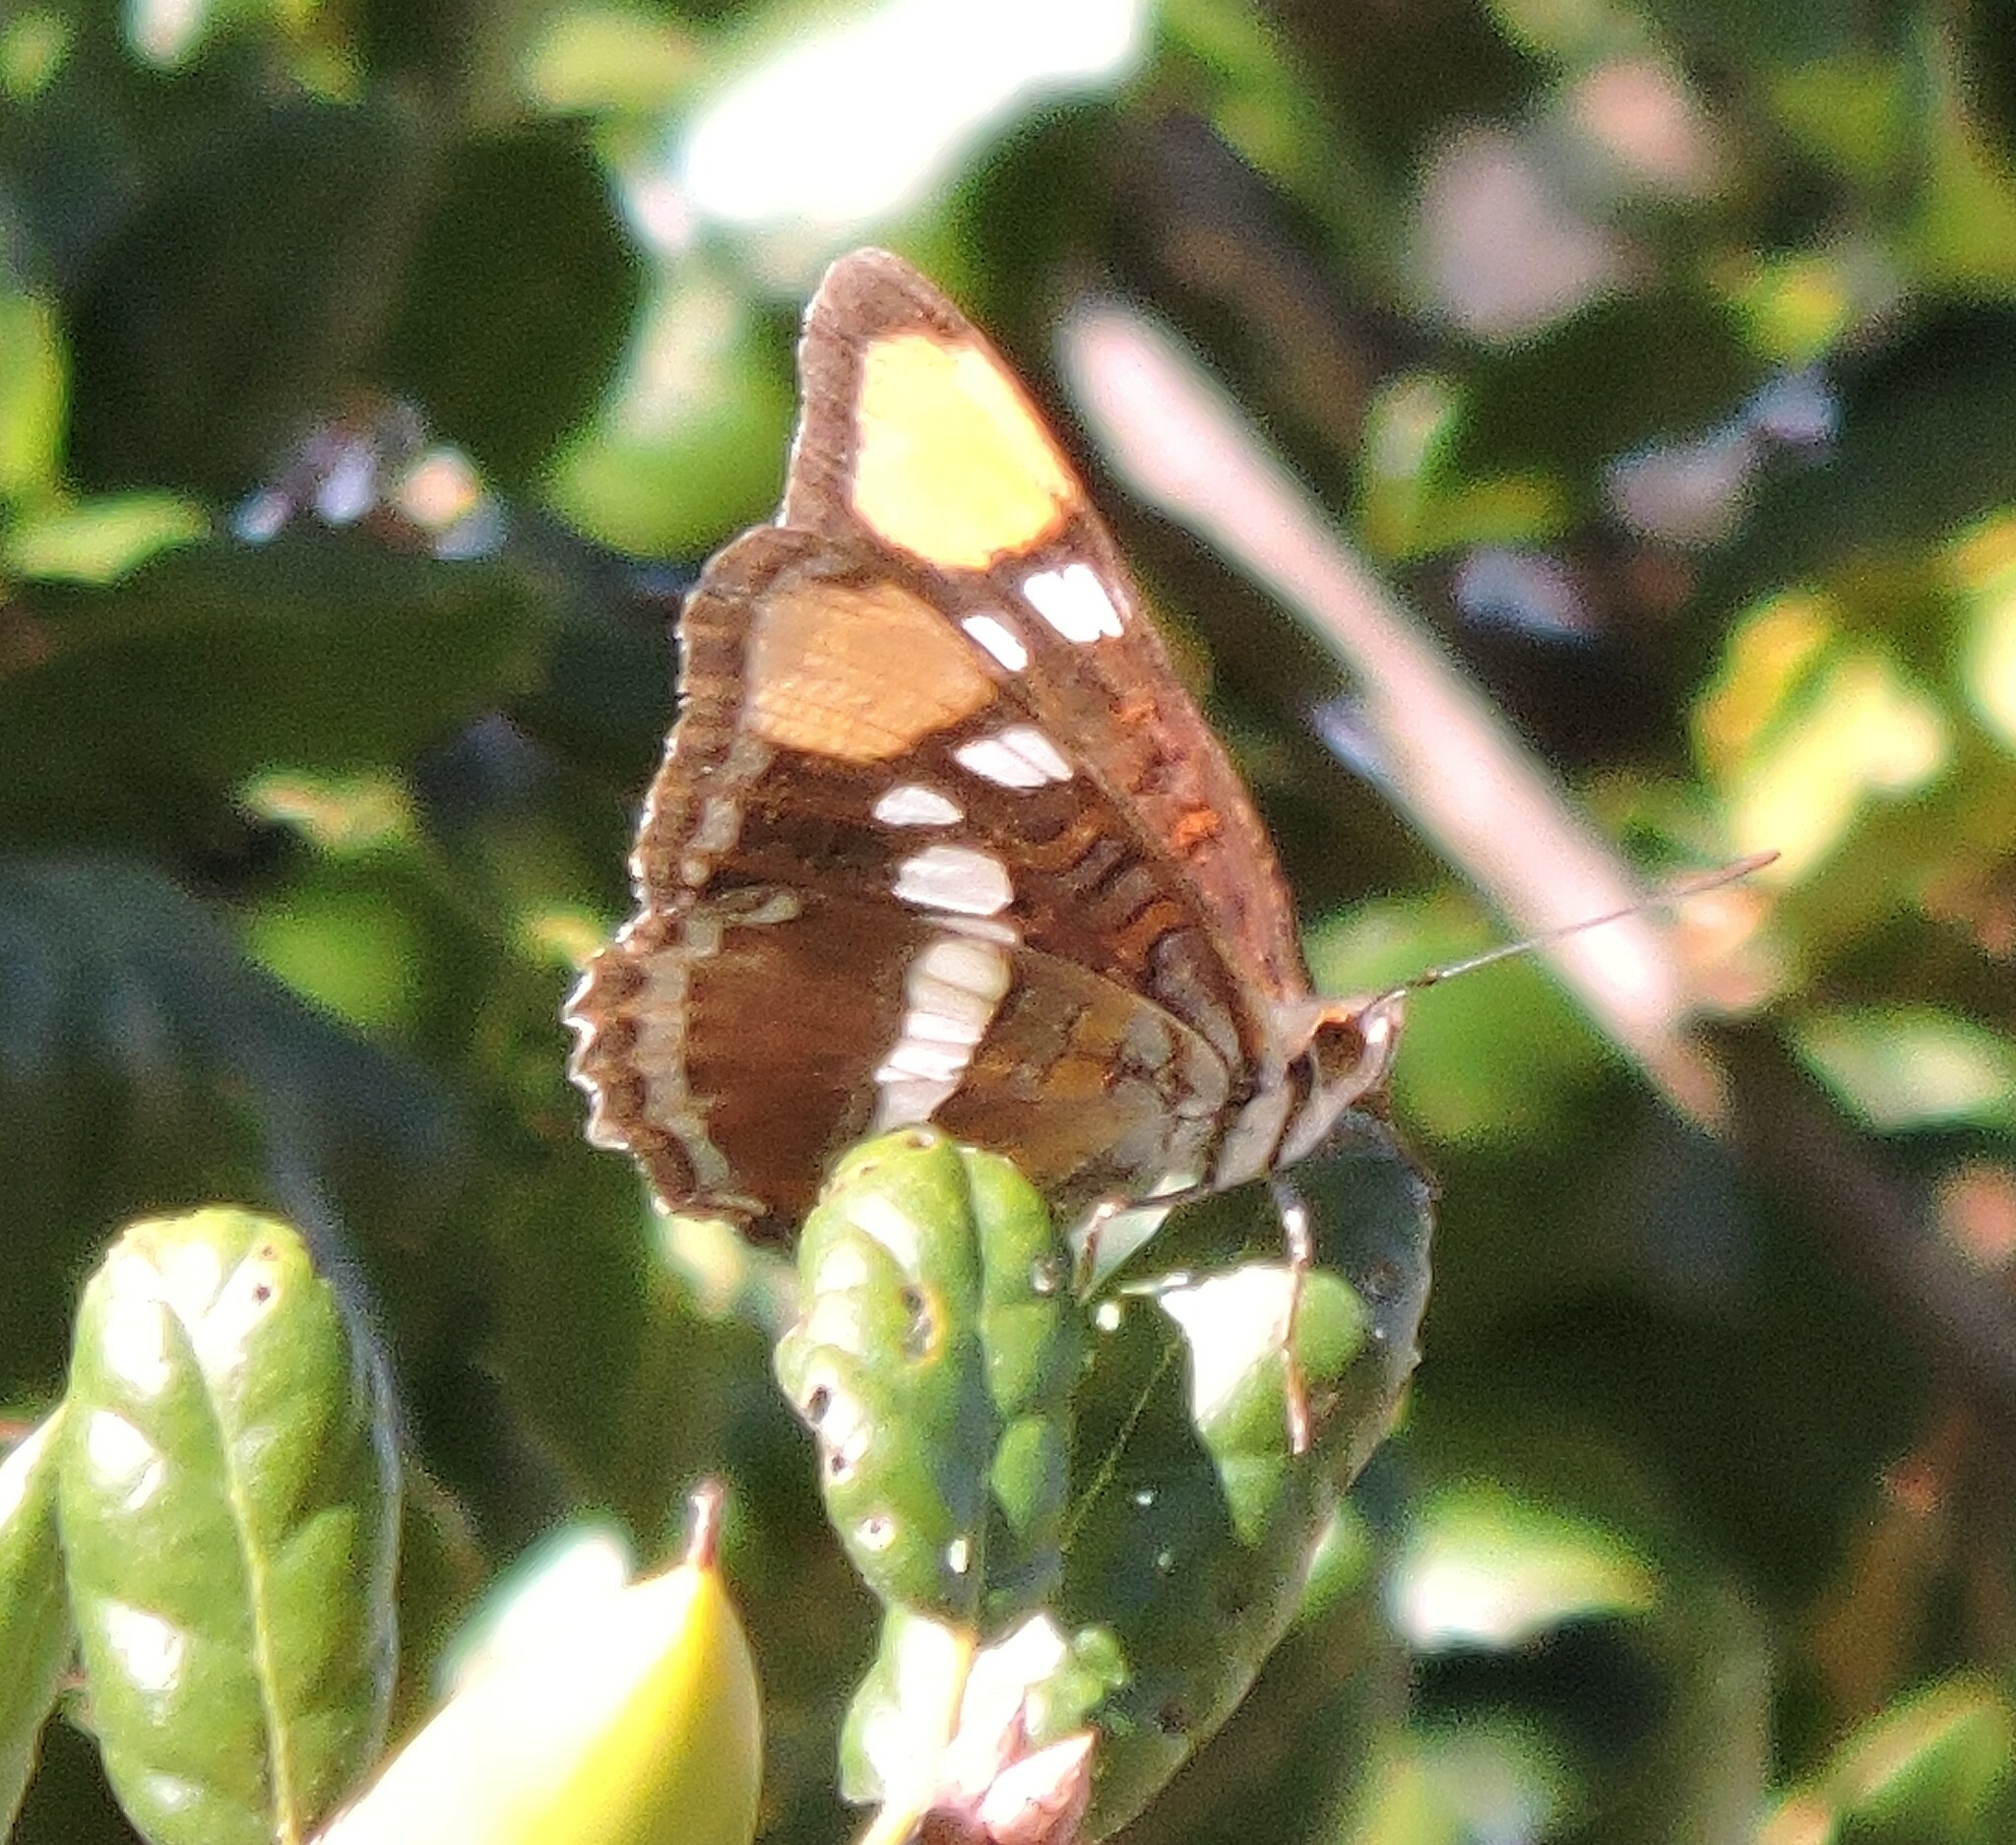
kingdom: Animalia
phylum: Arthropoda
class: Insecta
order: Lepidoptera
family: Nymphalidae
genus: Limenitis
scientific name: Limenitis bredowii
